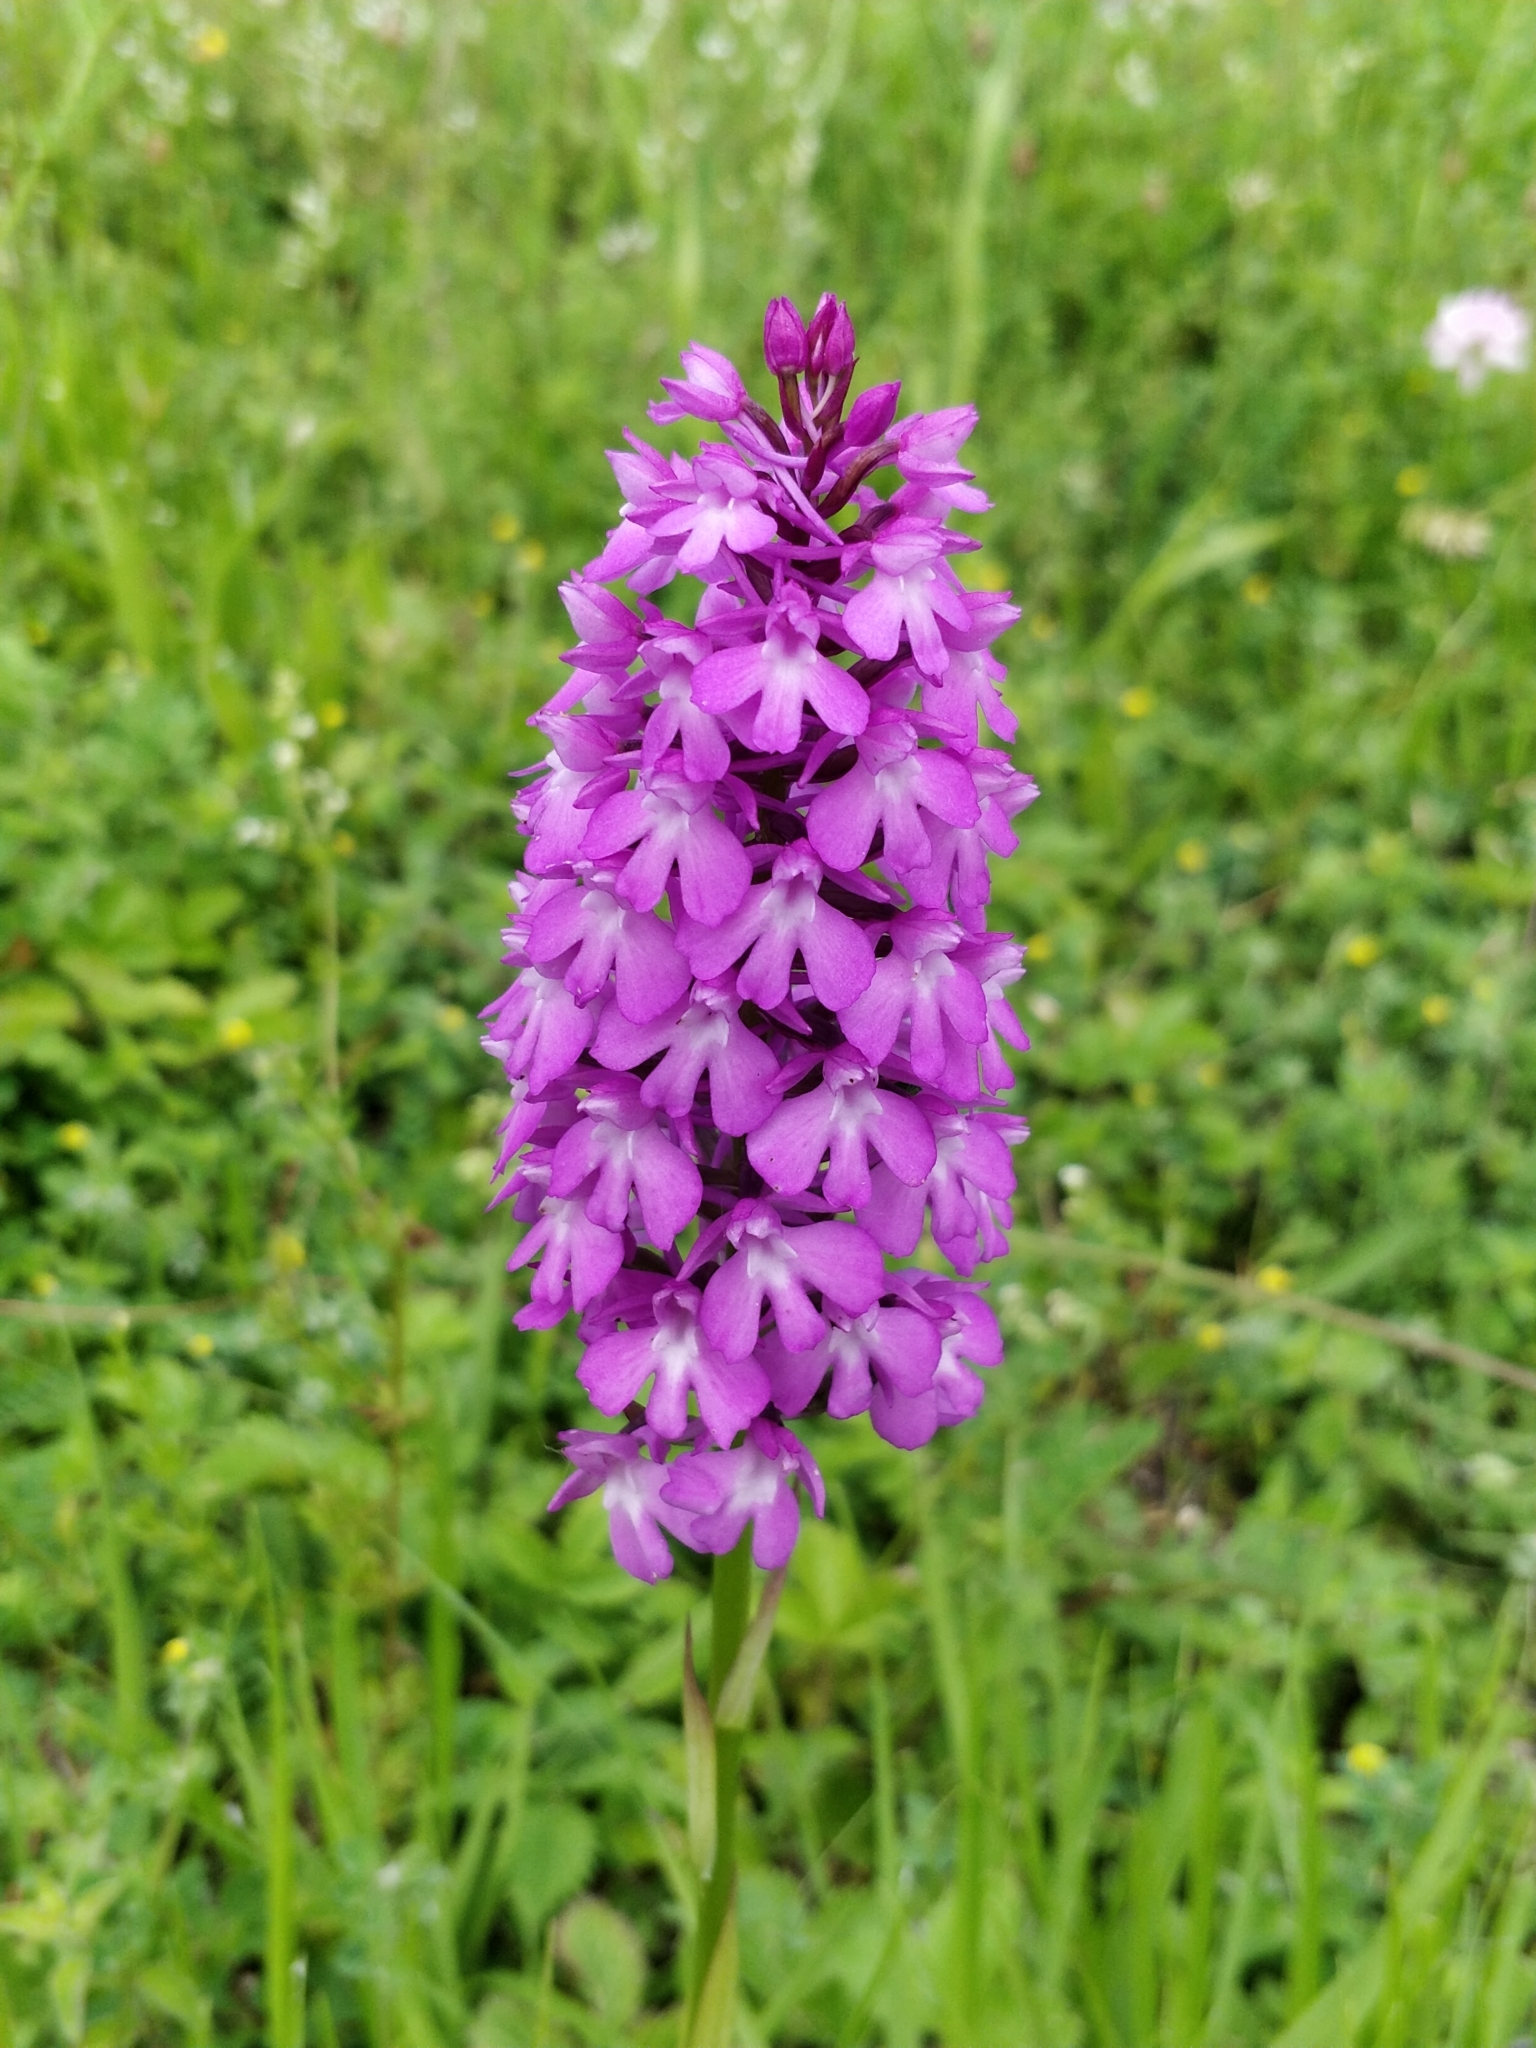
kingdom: Plantae
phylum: Tracheophyta
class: Liliopsida
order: Asparagales
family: Orchidaceae
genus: Anacamptis
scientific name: Anacamptis pyramidalis
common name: Pyramidal orchid
